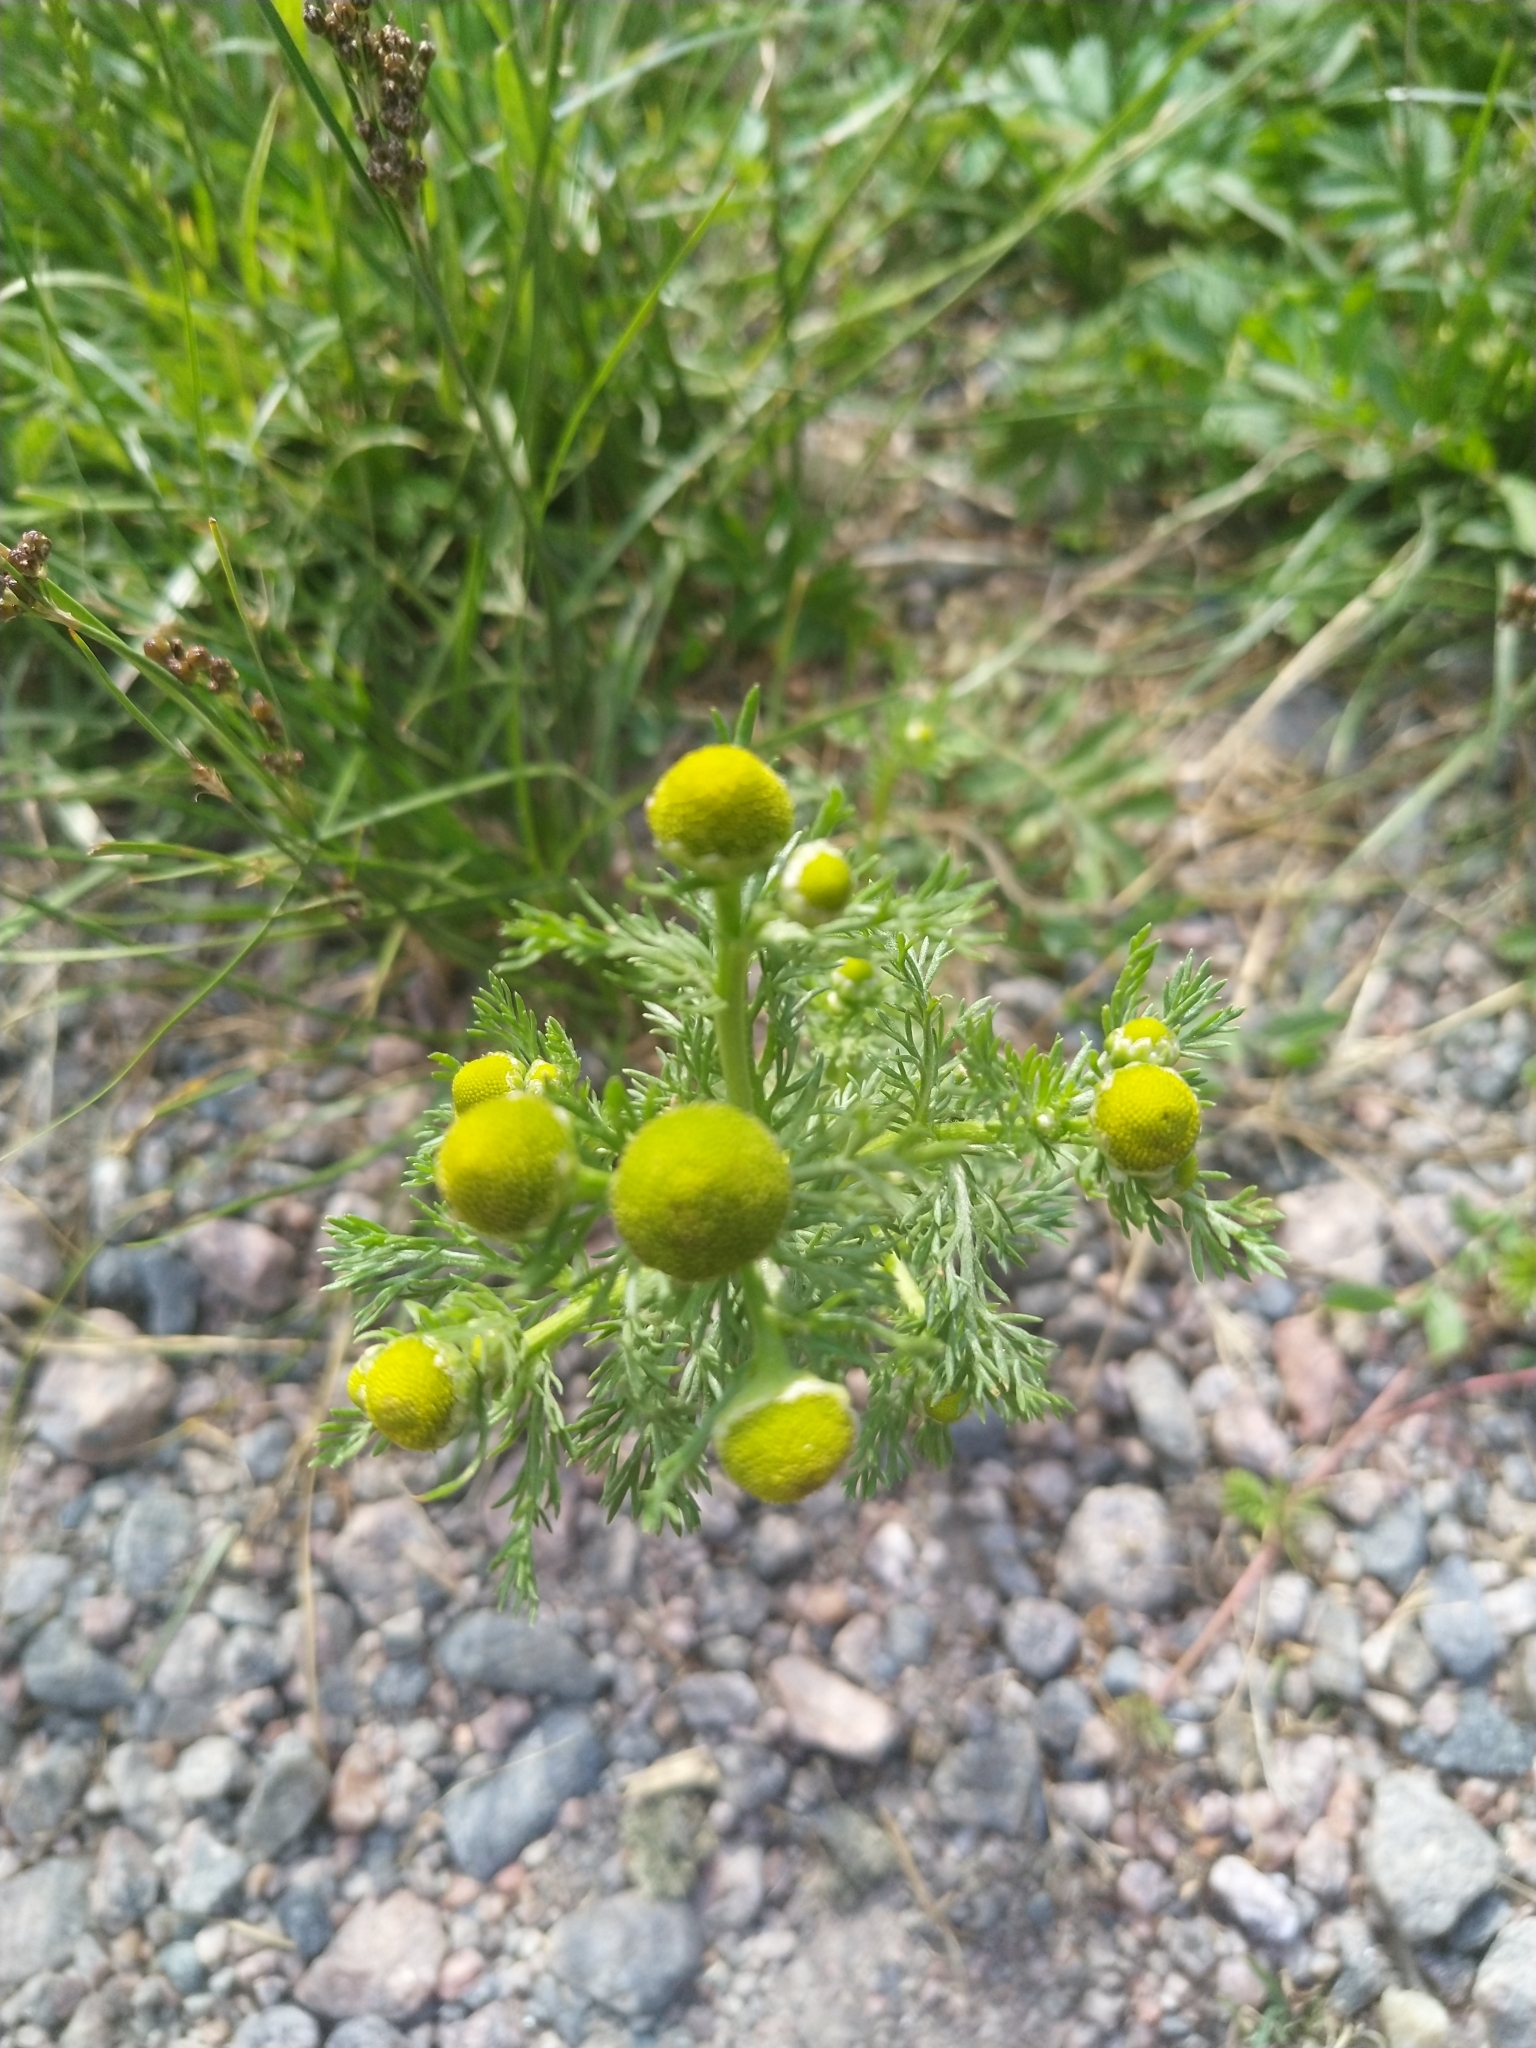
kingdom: Plantae
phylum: Tracheophyta
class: Magnoliopsida
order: Asterales
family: Asteraceae
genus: Matricaria
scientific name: Matricaria discoidea
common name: Disc mayweed
